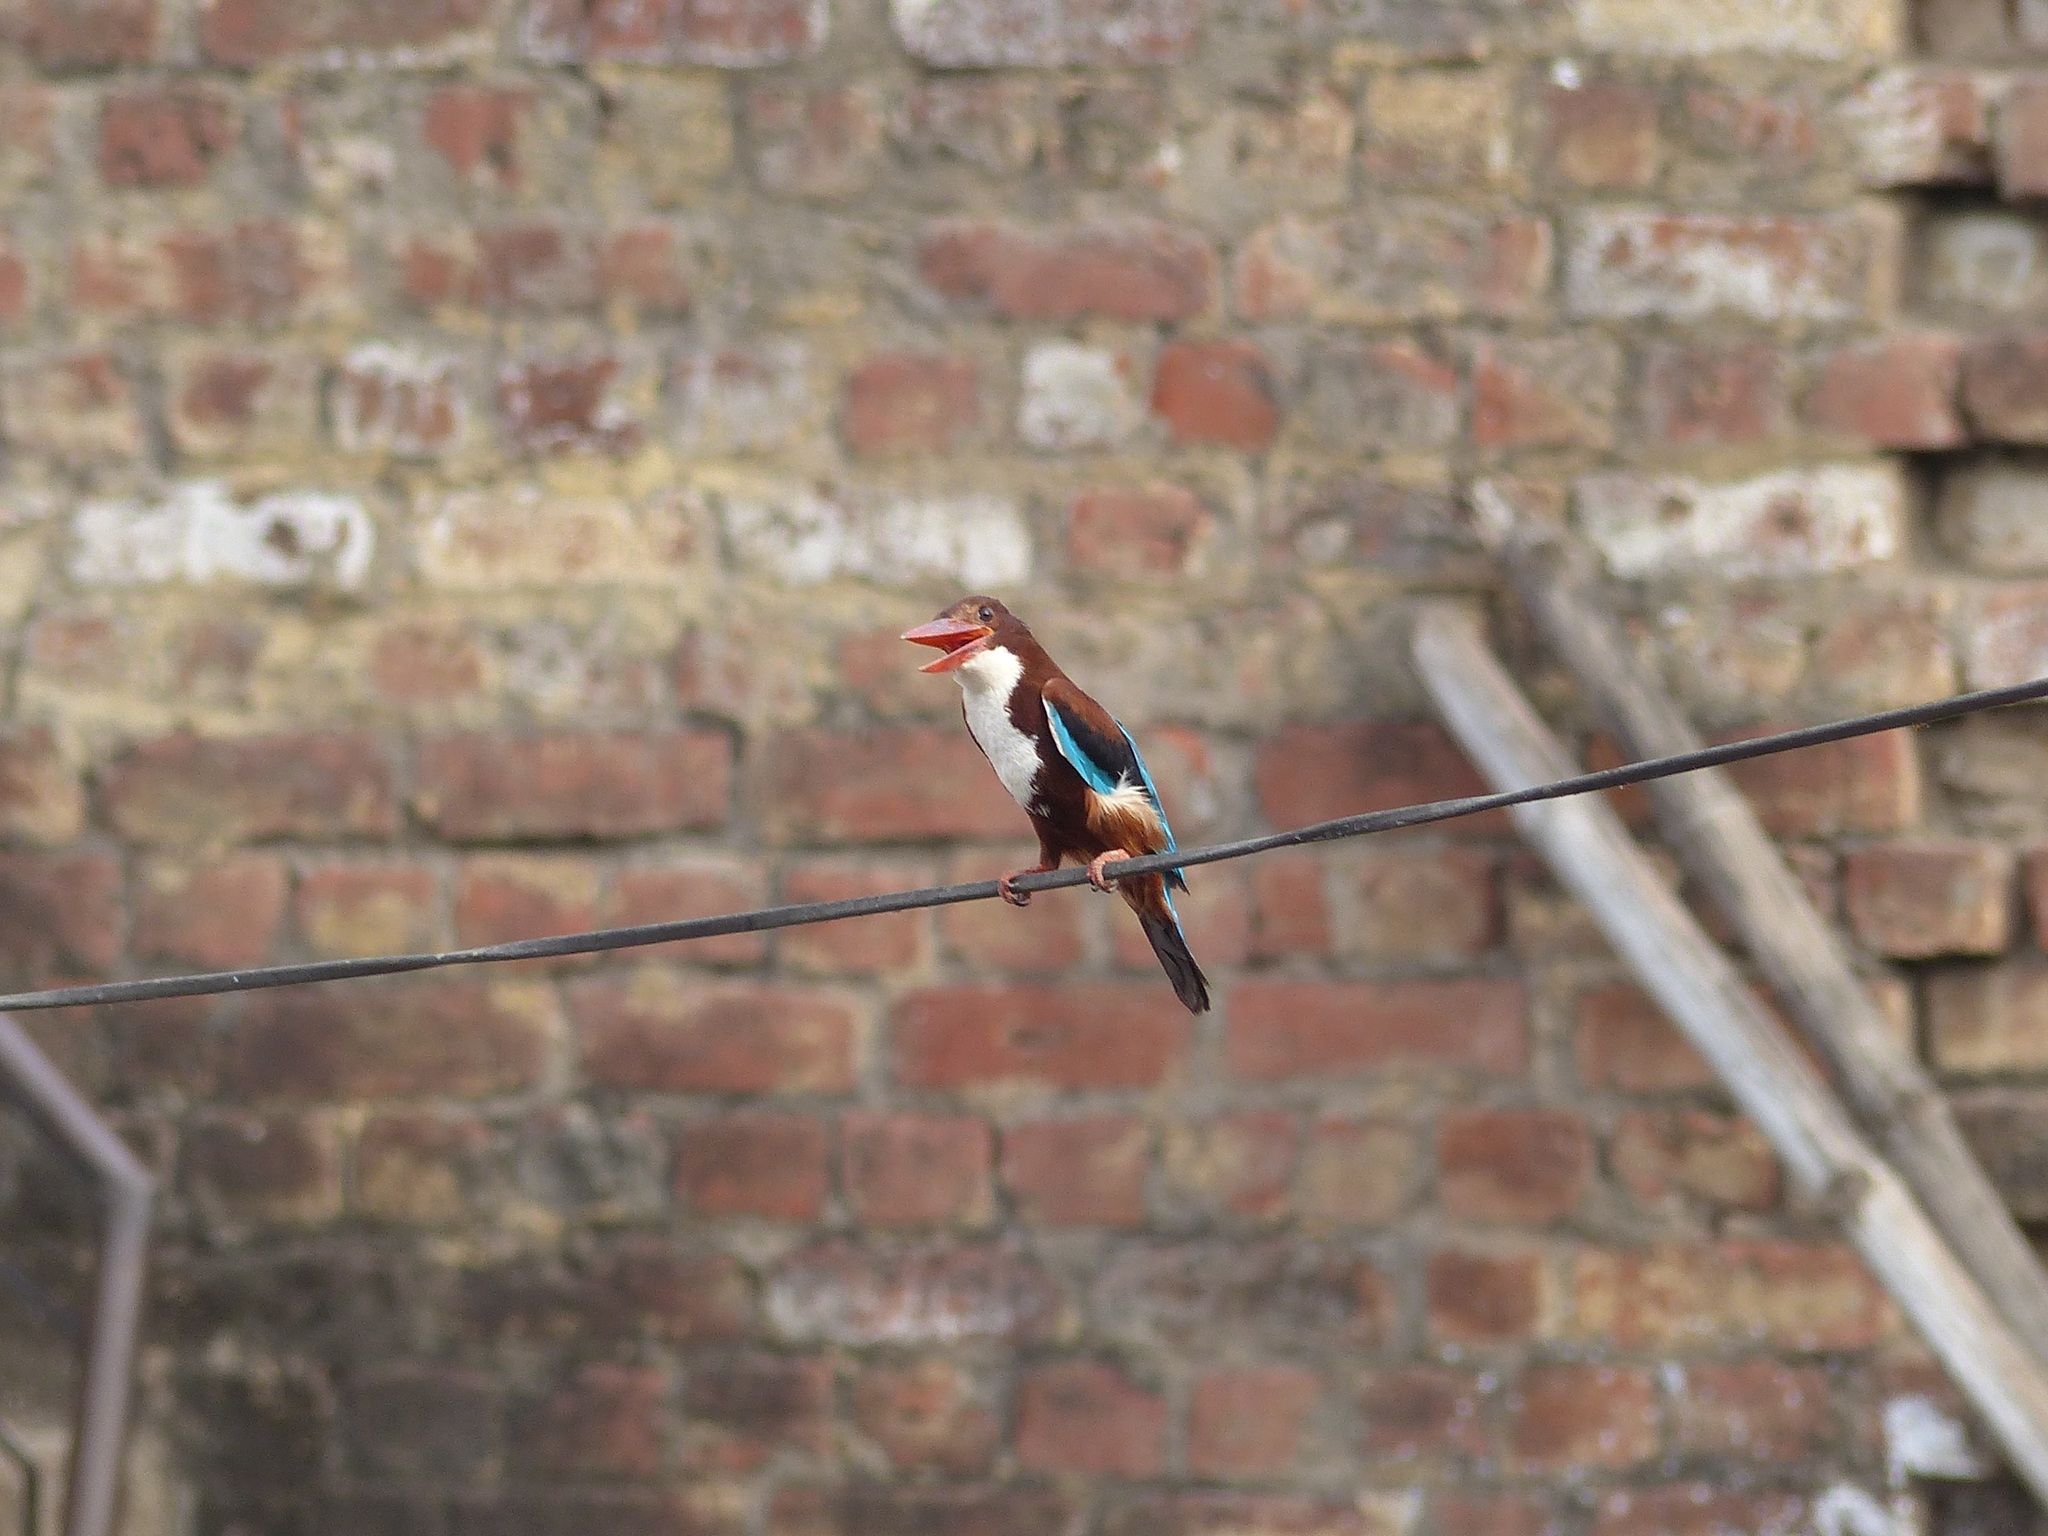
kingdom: Animalia
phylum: Chordata
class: Aves
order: Coraciiformes
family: Alcedinidae
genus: Halcyon
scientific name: Halcyon smyrnensis
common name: White-throated kingfisher
